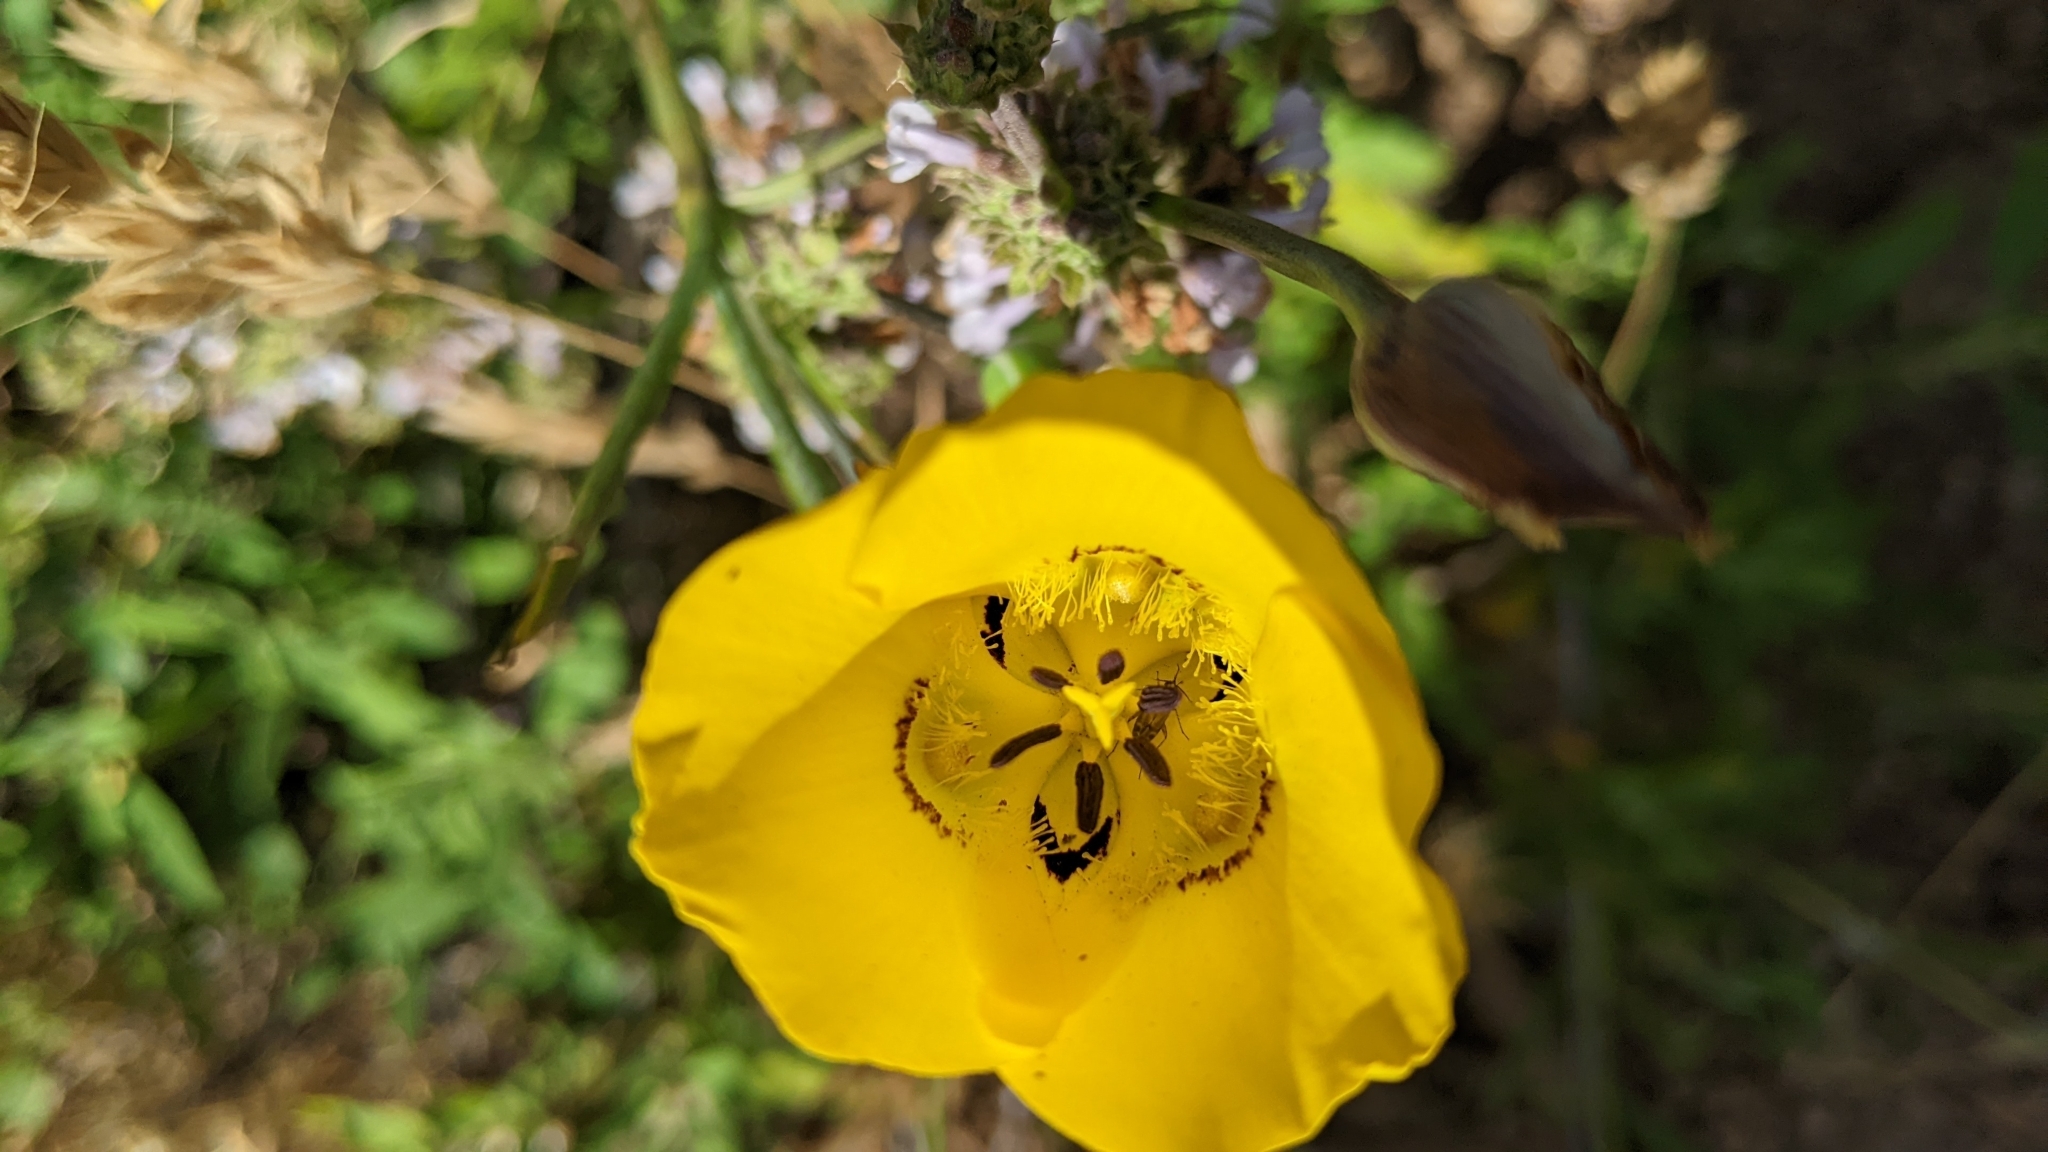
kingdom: Plantae
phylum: Tracheophyta
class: Liliopsida
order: Liliales
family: Liliaceae
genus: Calochortus
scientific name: Calochortus clavatus
